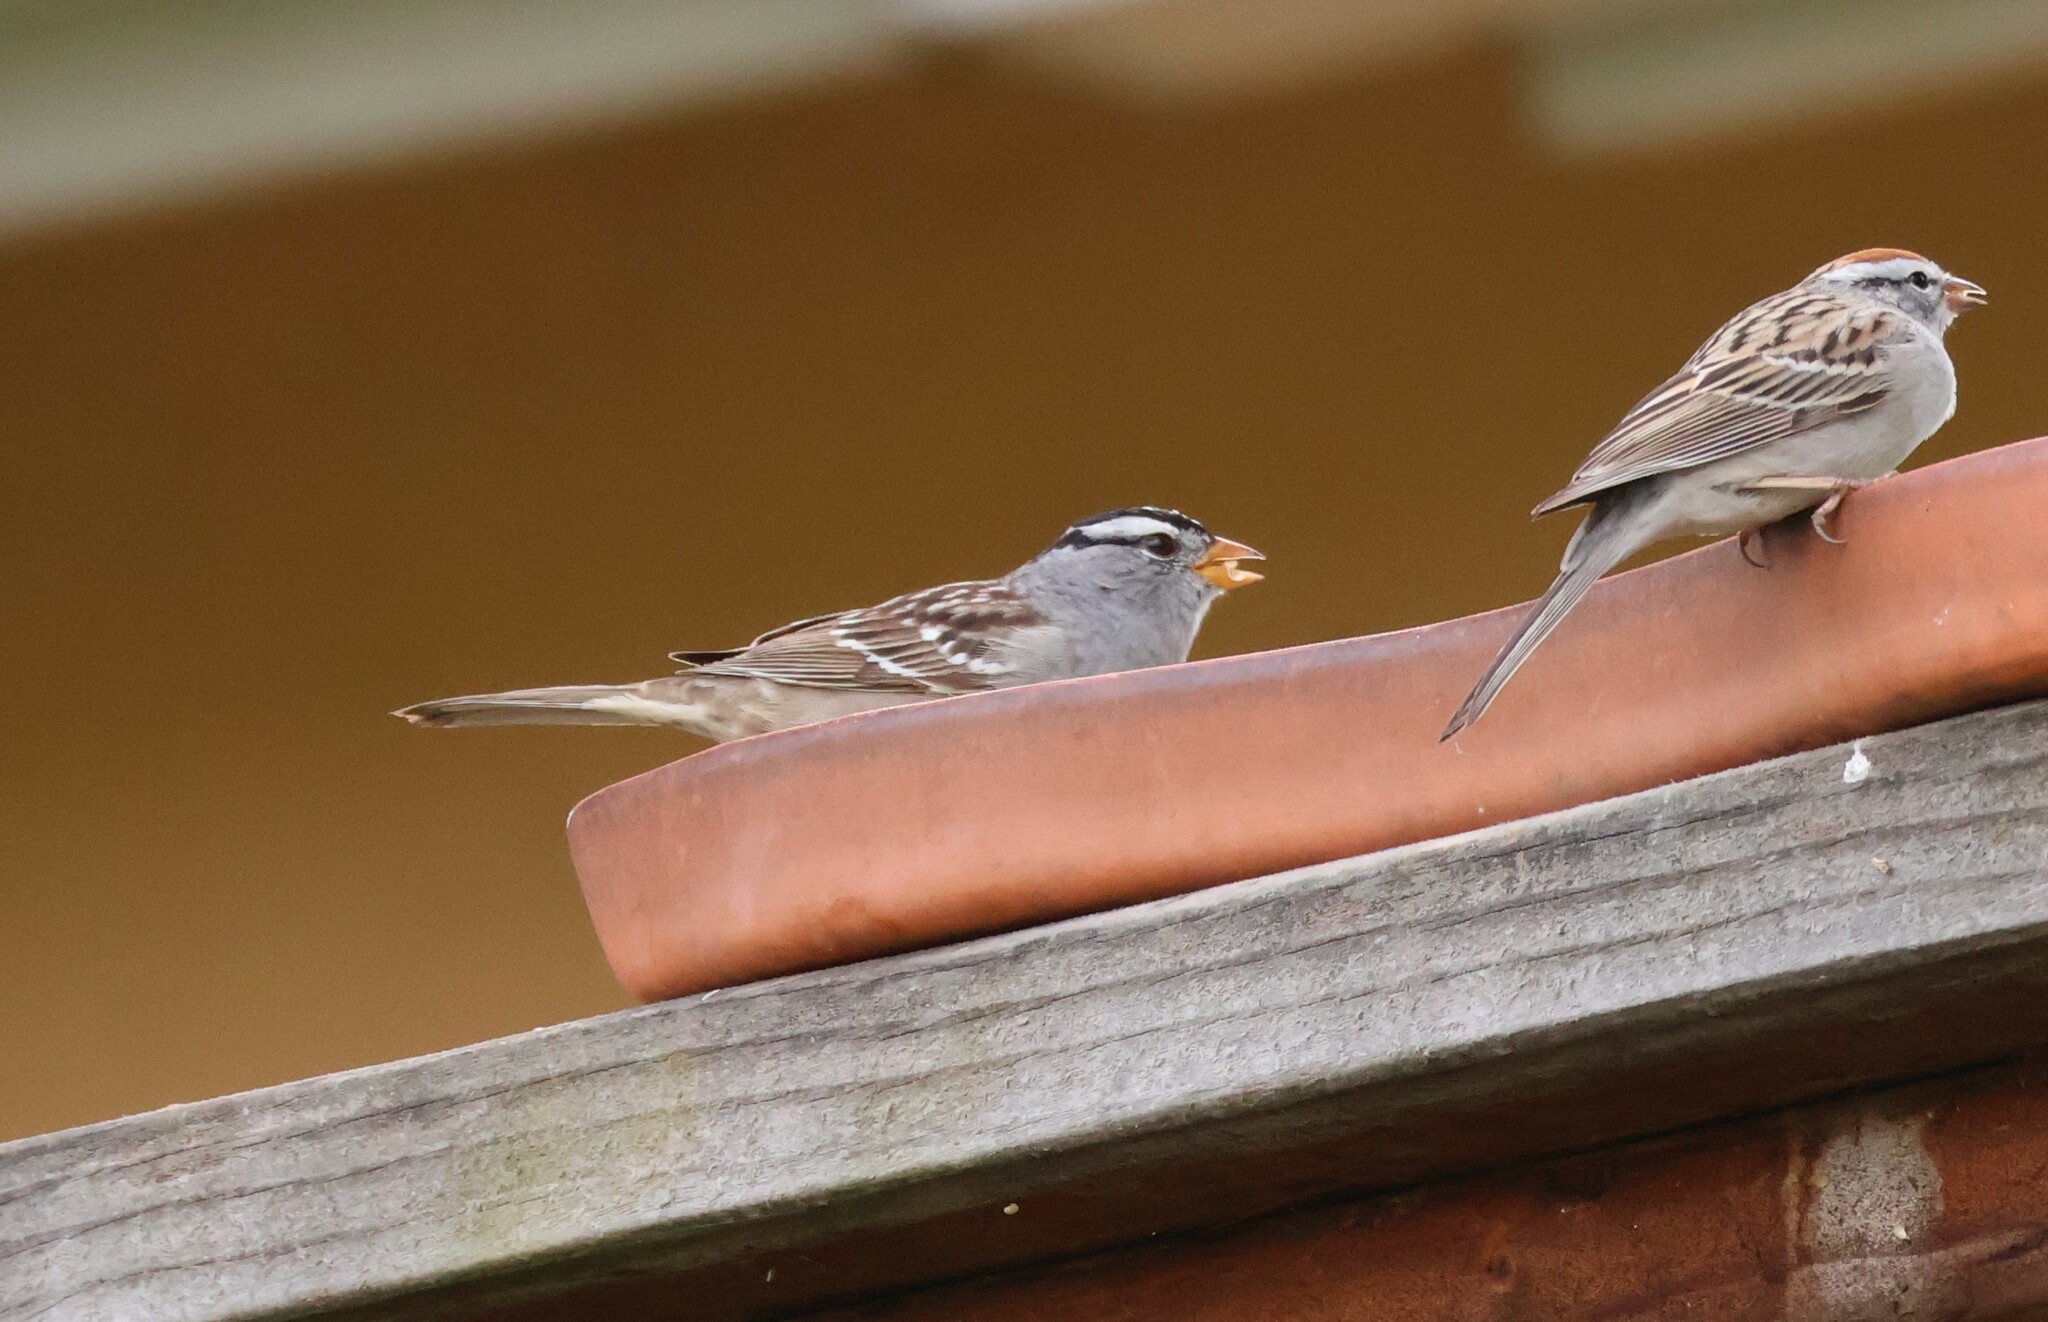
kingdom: Animalia
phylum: Chordata
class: Aves
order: Passeriformes
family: Passerellidae
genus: Zonotrichia
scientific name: Zonotrichia leucophrys
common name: White-crowned sparrow
